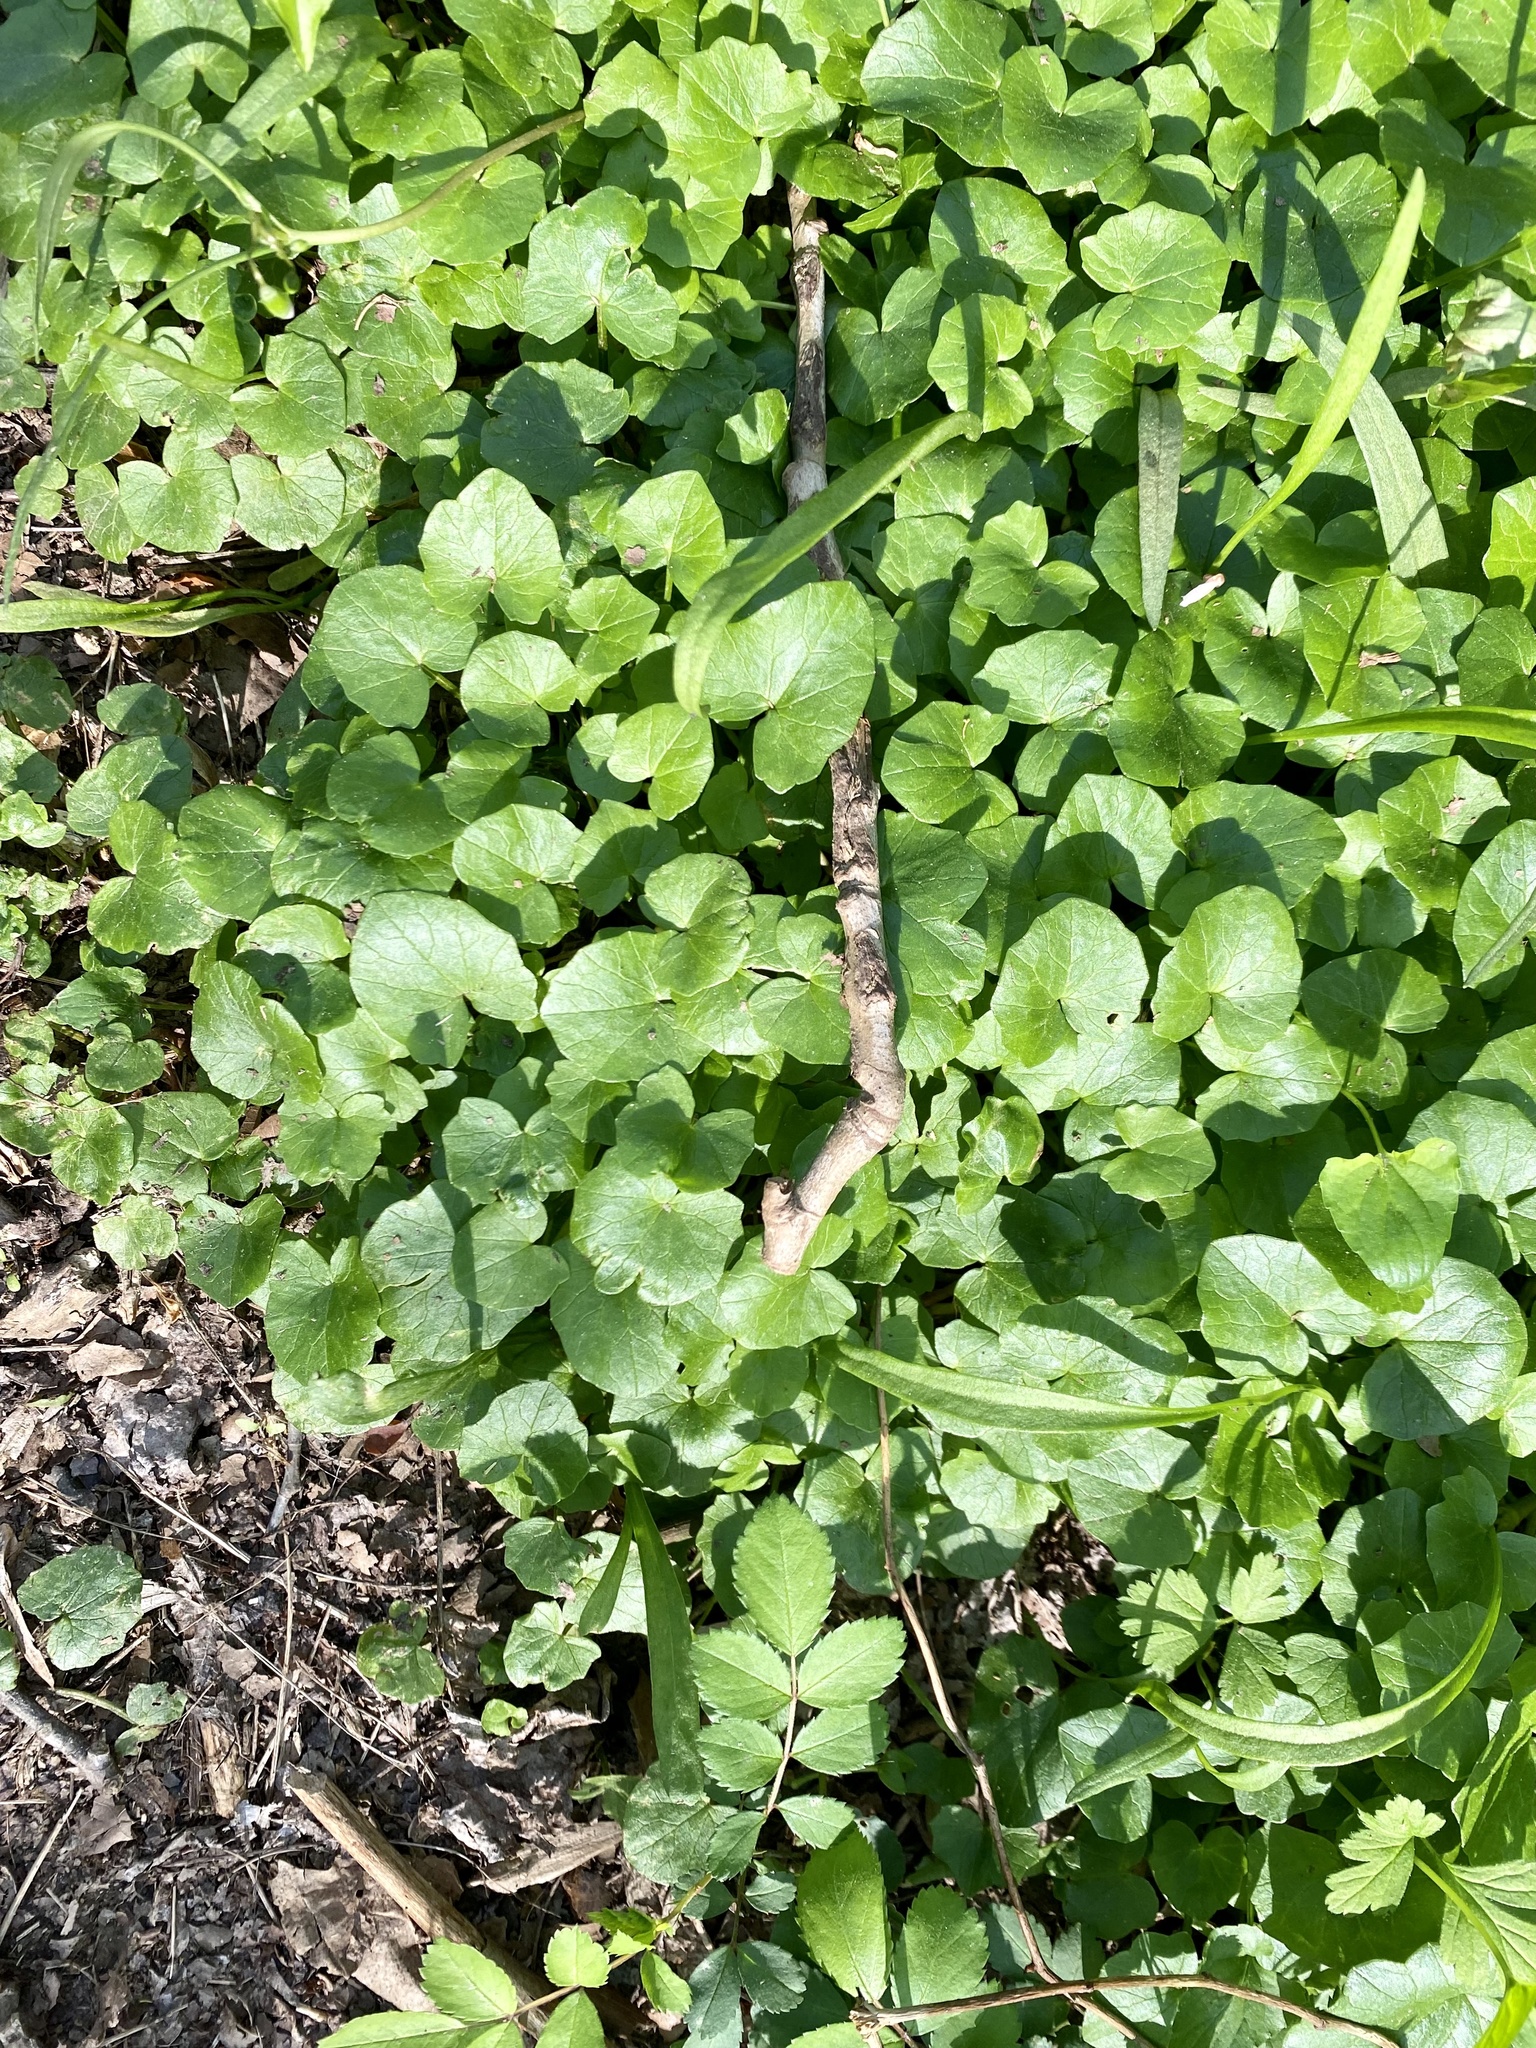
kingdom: Plantae
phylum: Tracheophyta
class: Magnoliopsida
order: Ranunculales
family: Ranunculaceae
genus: Ficaria
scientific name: Ficaria verna
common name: Lesser celandine
